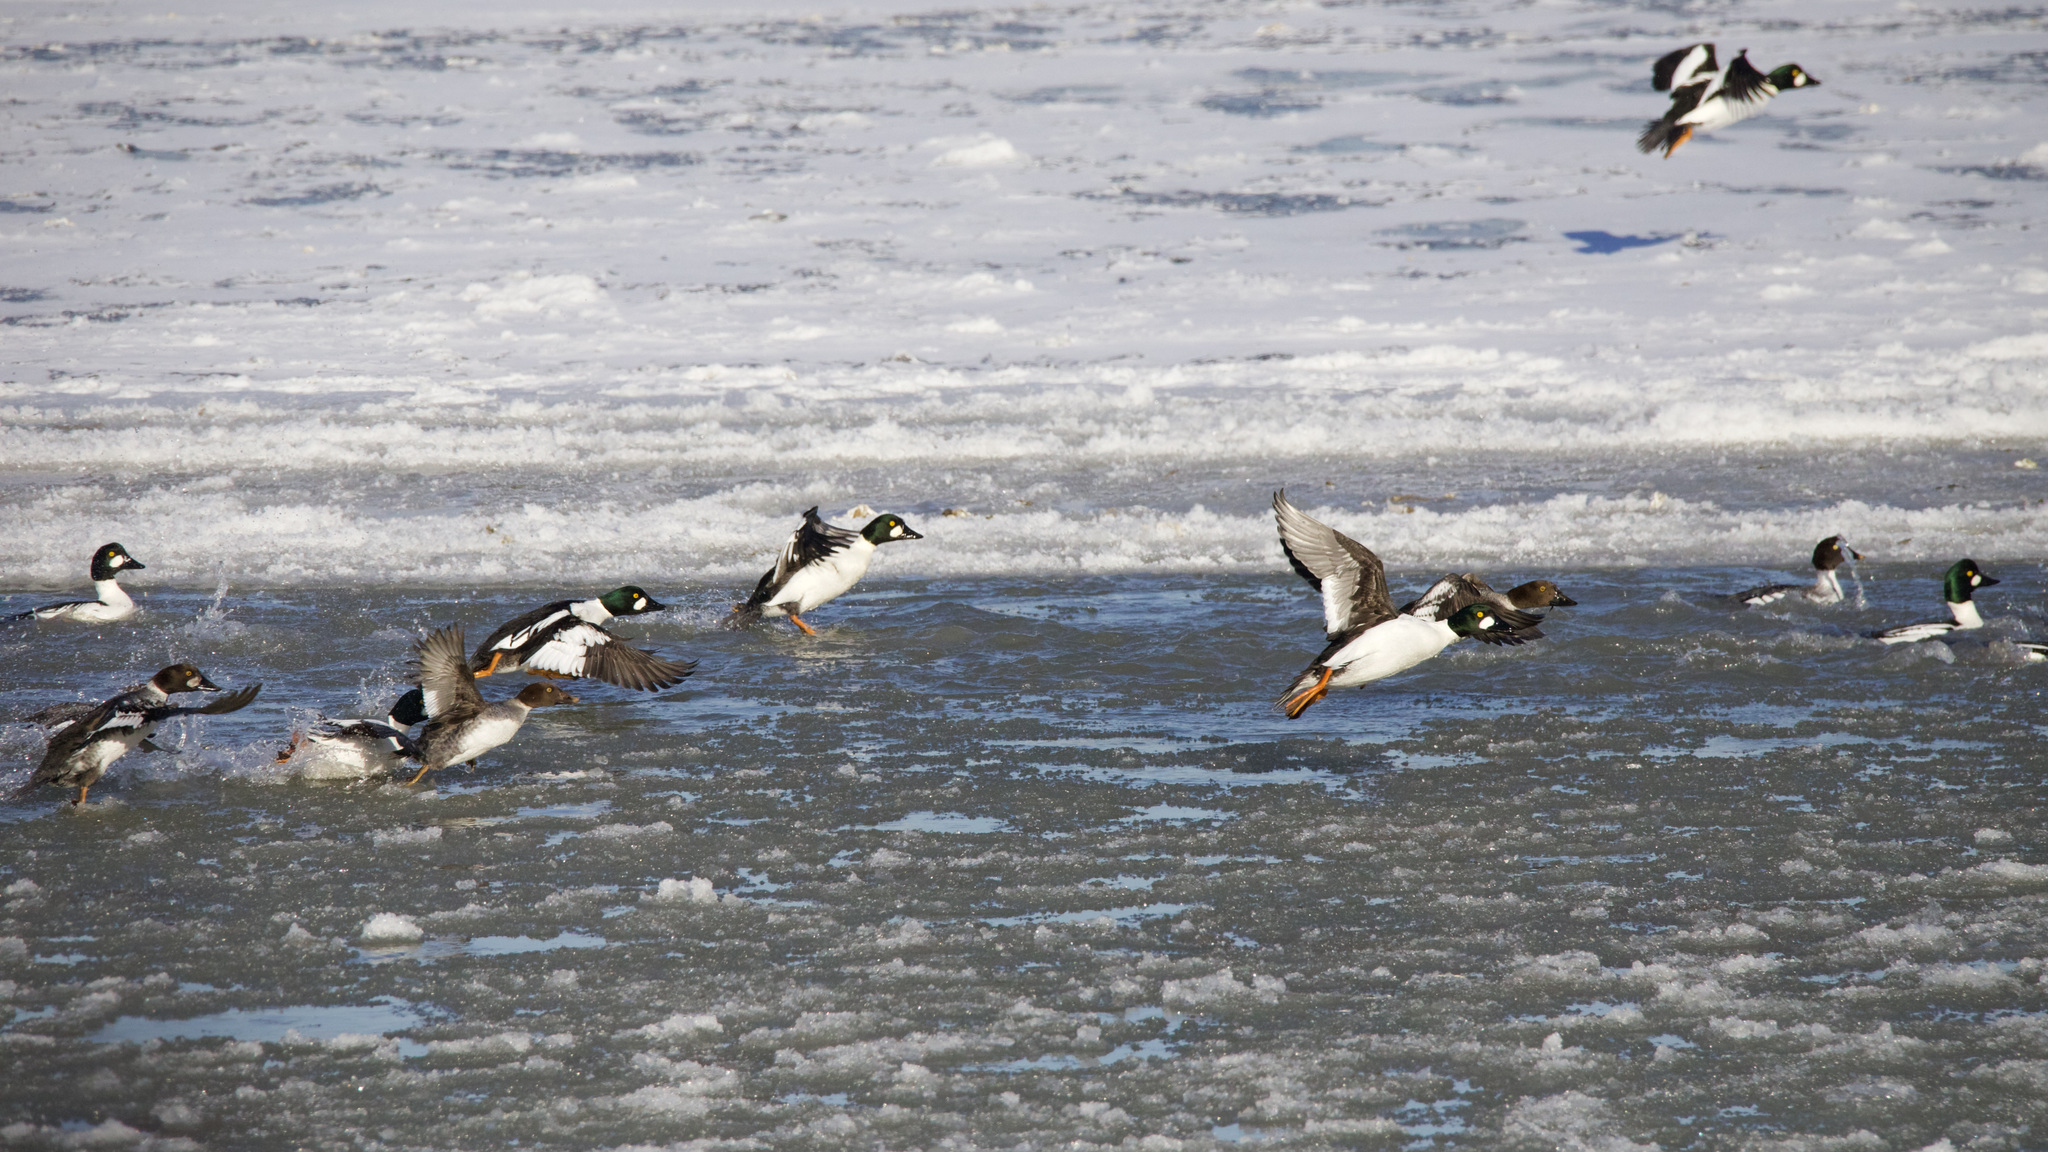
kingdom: Animalia
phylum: Chordata
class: Aves
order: Anseriformes
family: Anatidae
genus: Bucephala
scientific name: Bucephala clangula
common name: Common goldeneye
